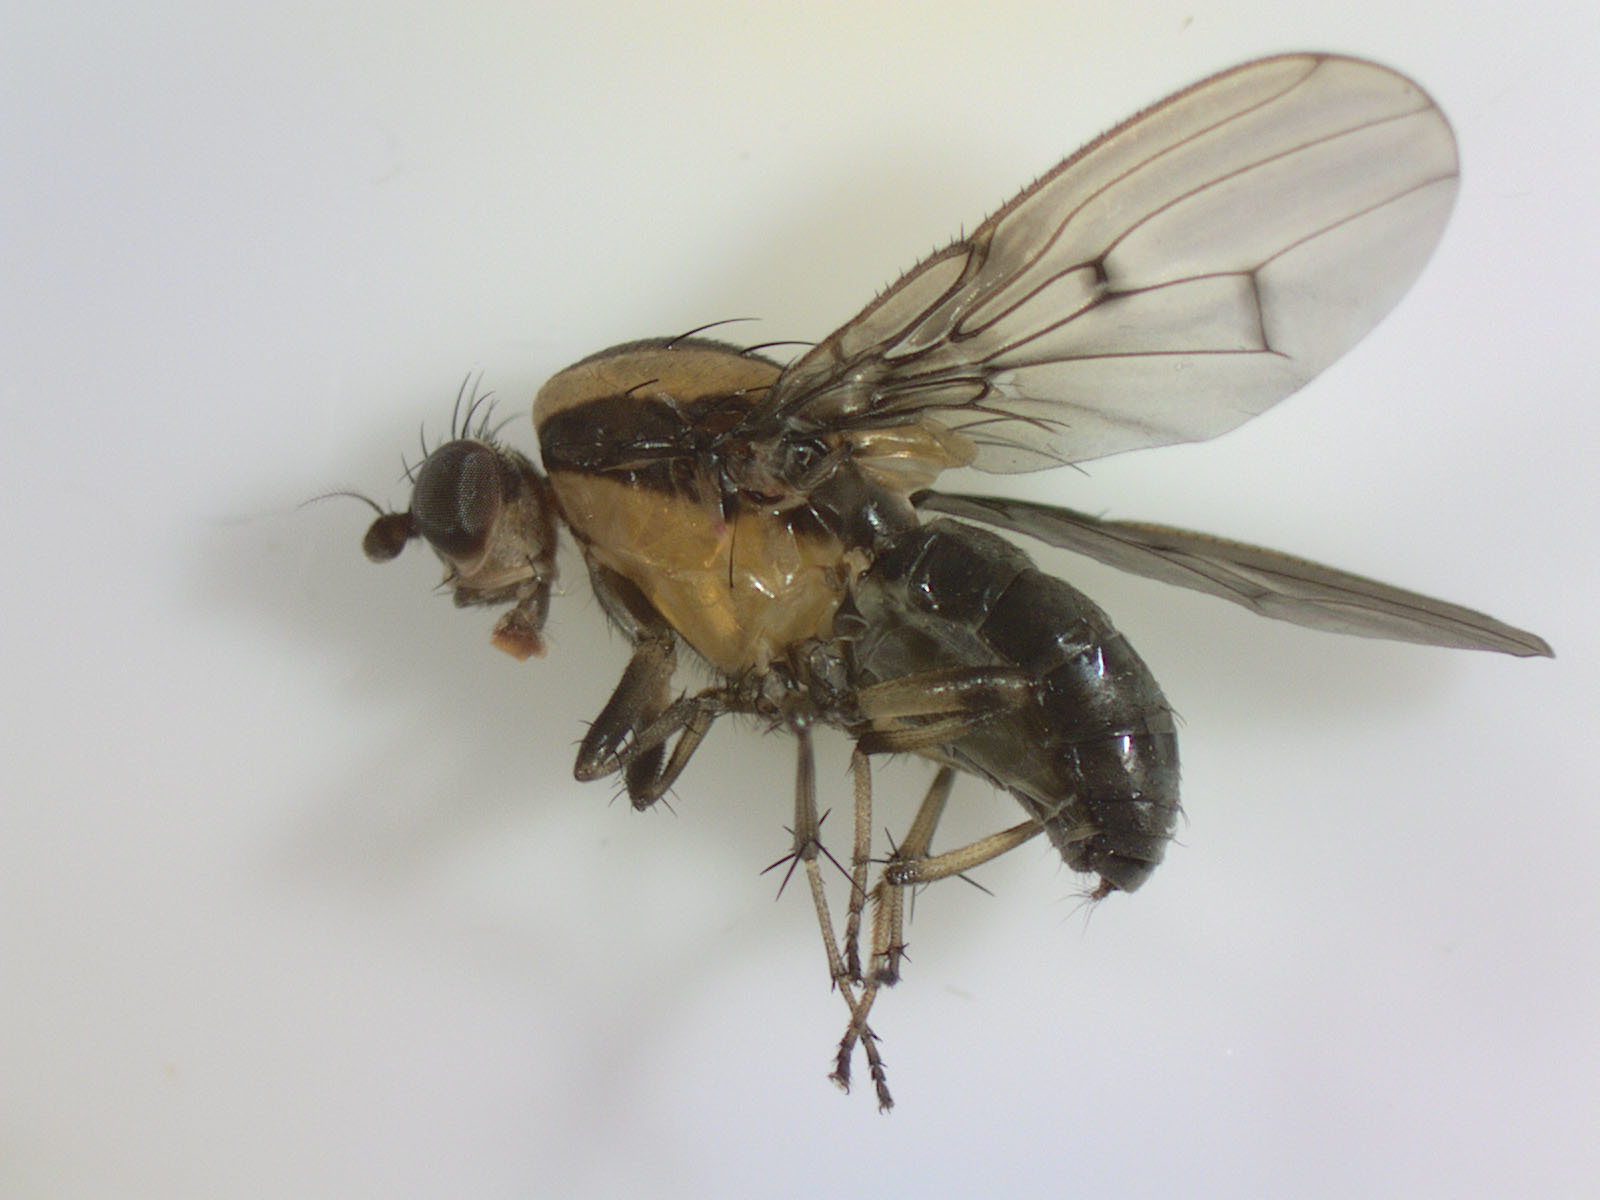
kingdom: Animalia
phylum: Arthropoda
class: Insecta
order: Diptera
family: Heleomyzidae
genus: Allophylopsis
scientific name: Allophylopsis scutellata
